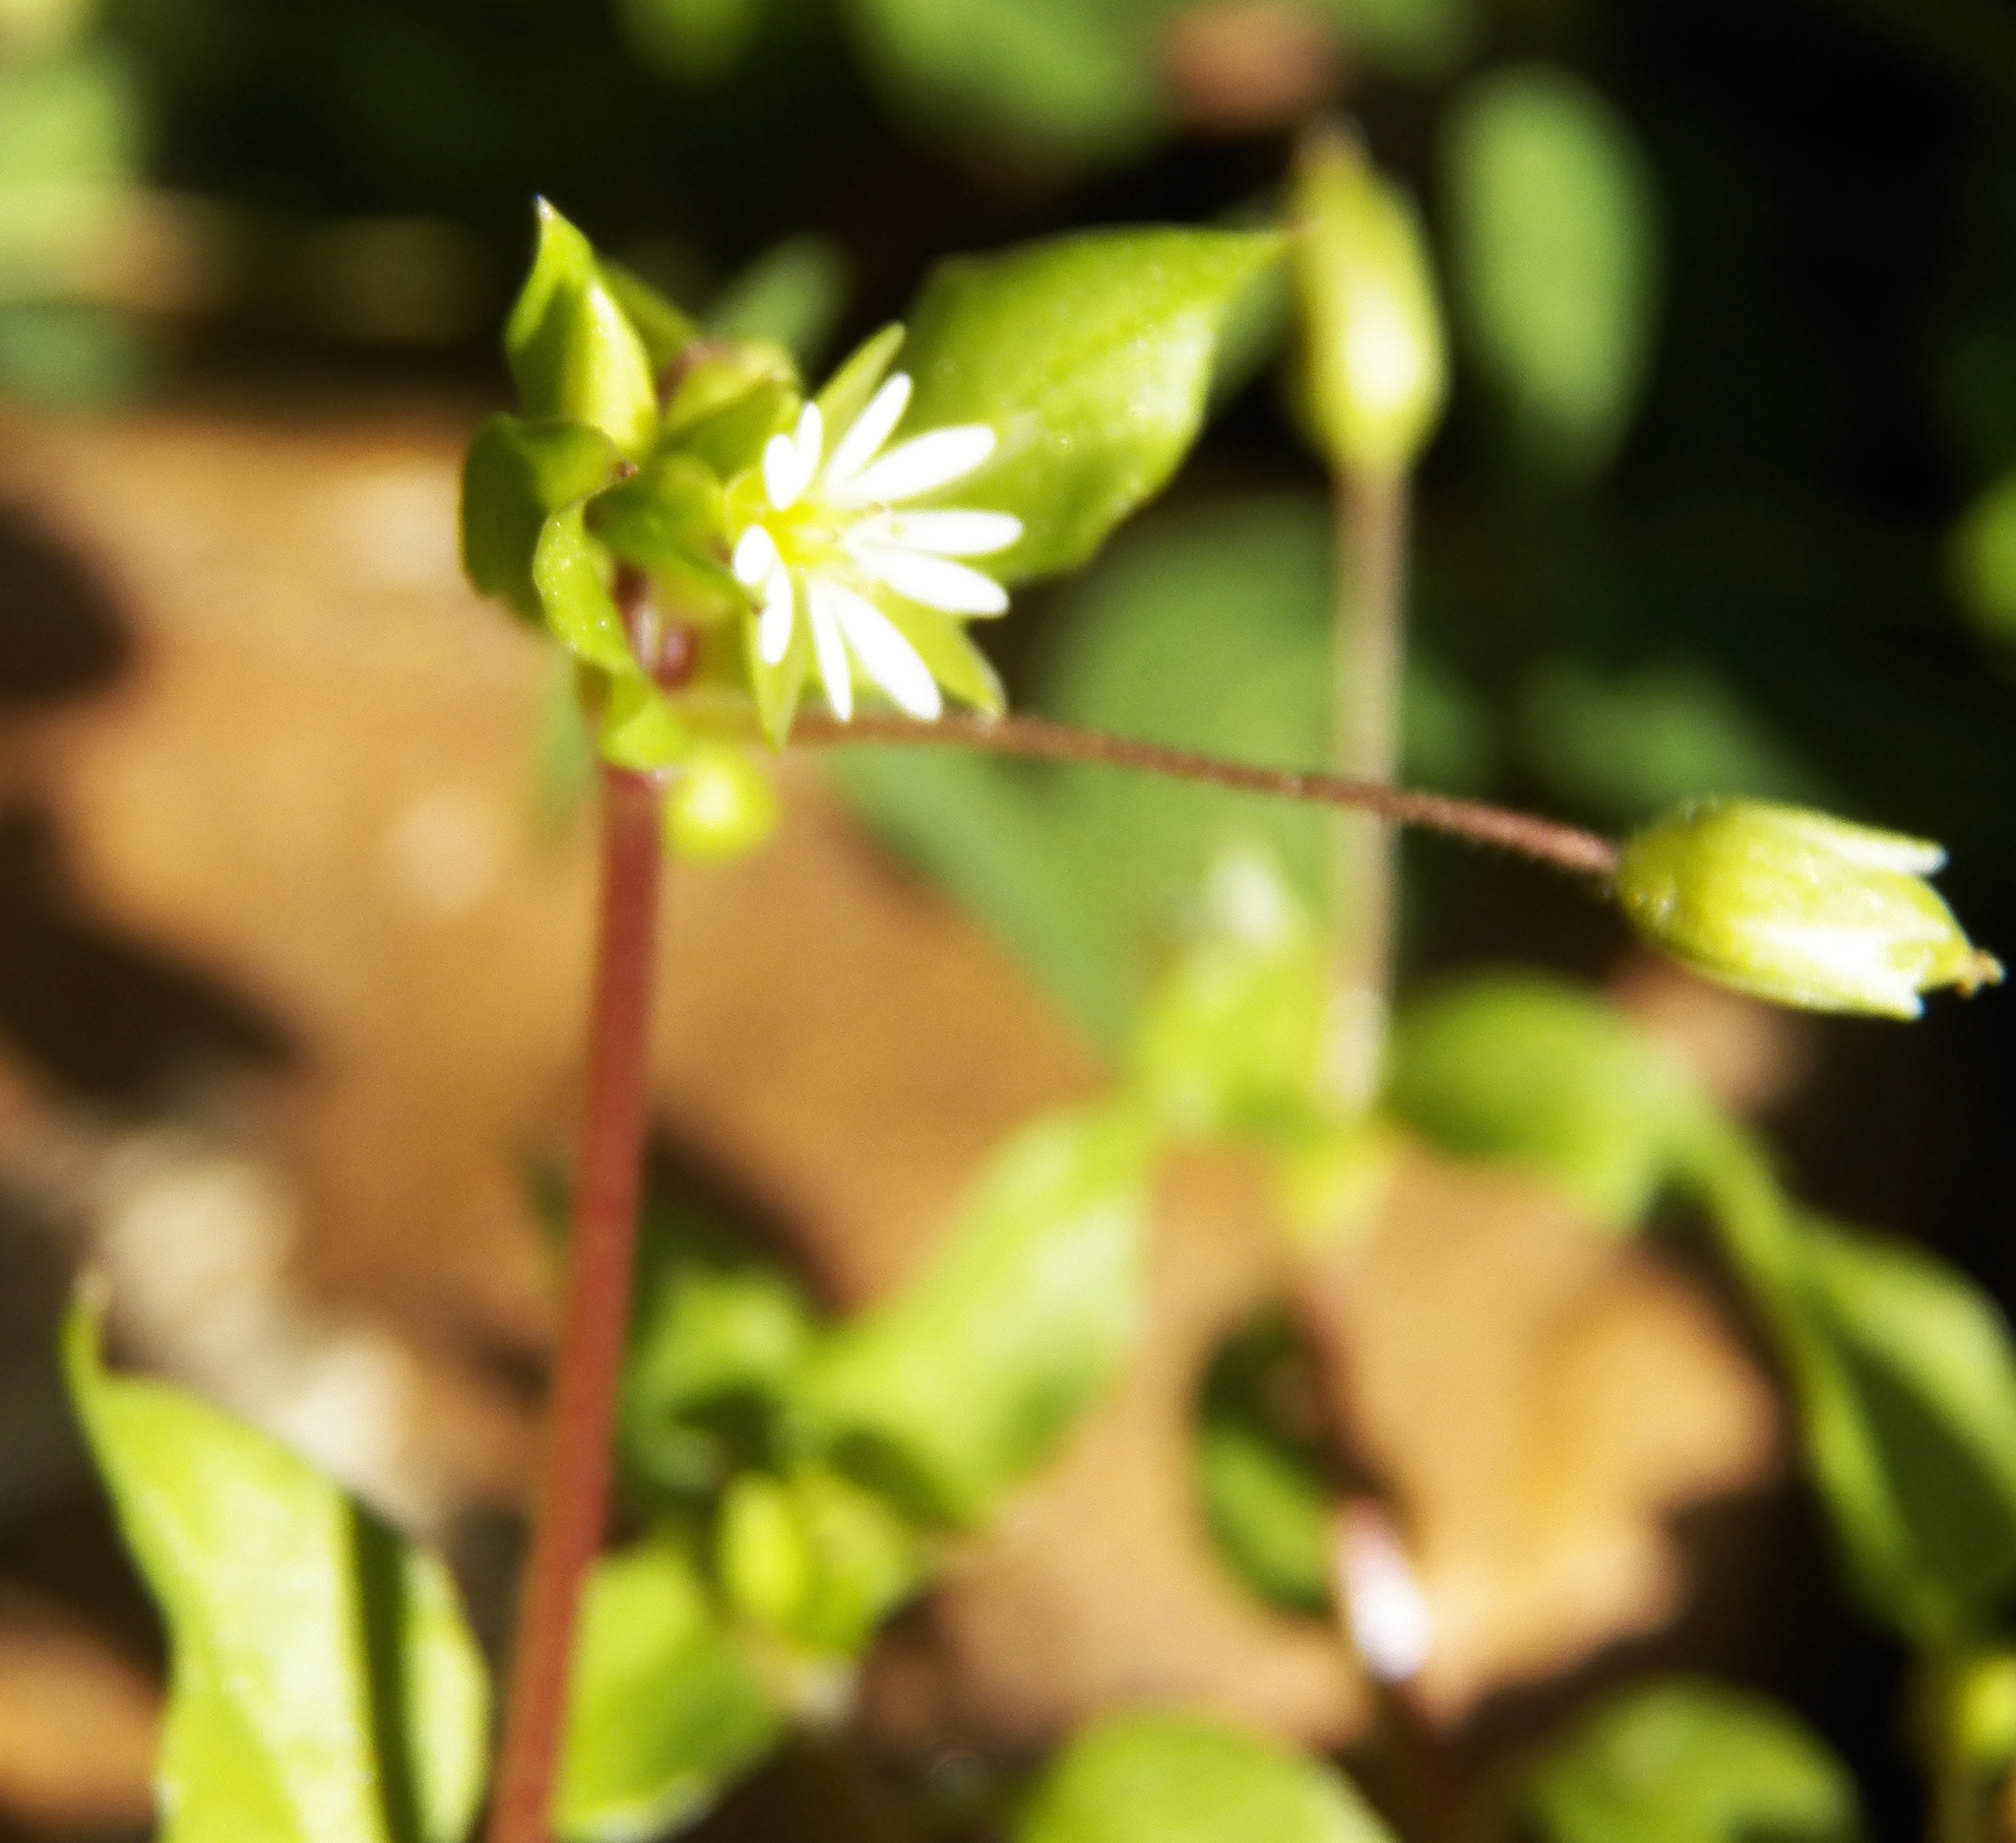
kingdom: Plantae
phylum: Tracheophyta
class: Magnoliopsida
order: Caryophyllales
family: Caryophyllaceae
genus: Stellaria
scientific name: Stellaria media
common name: Common chickweed
